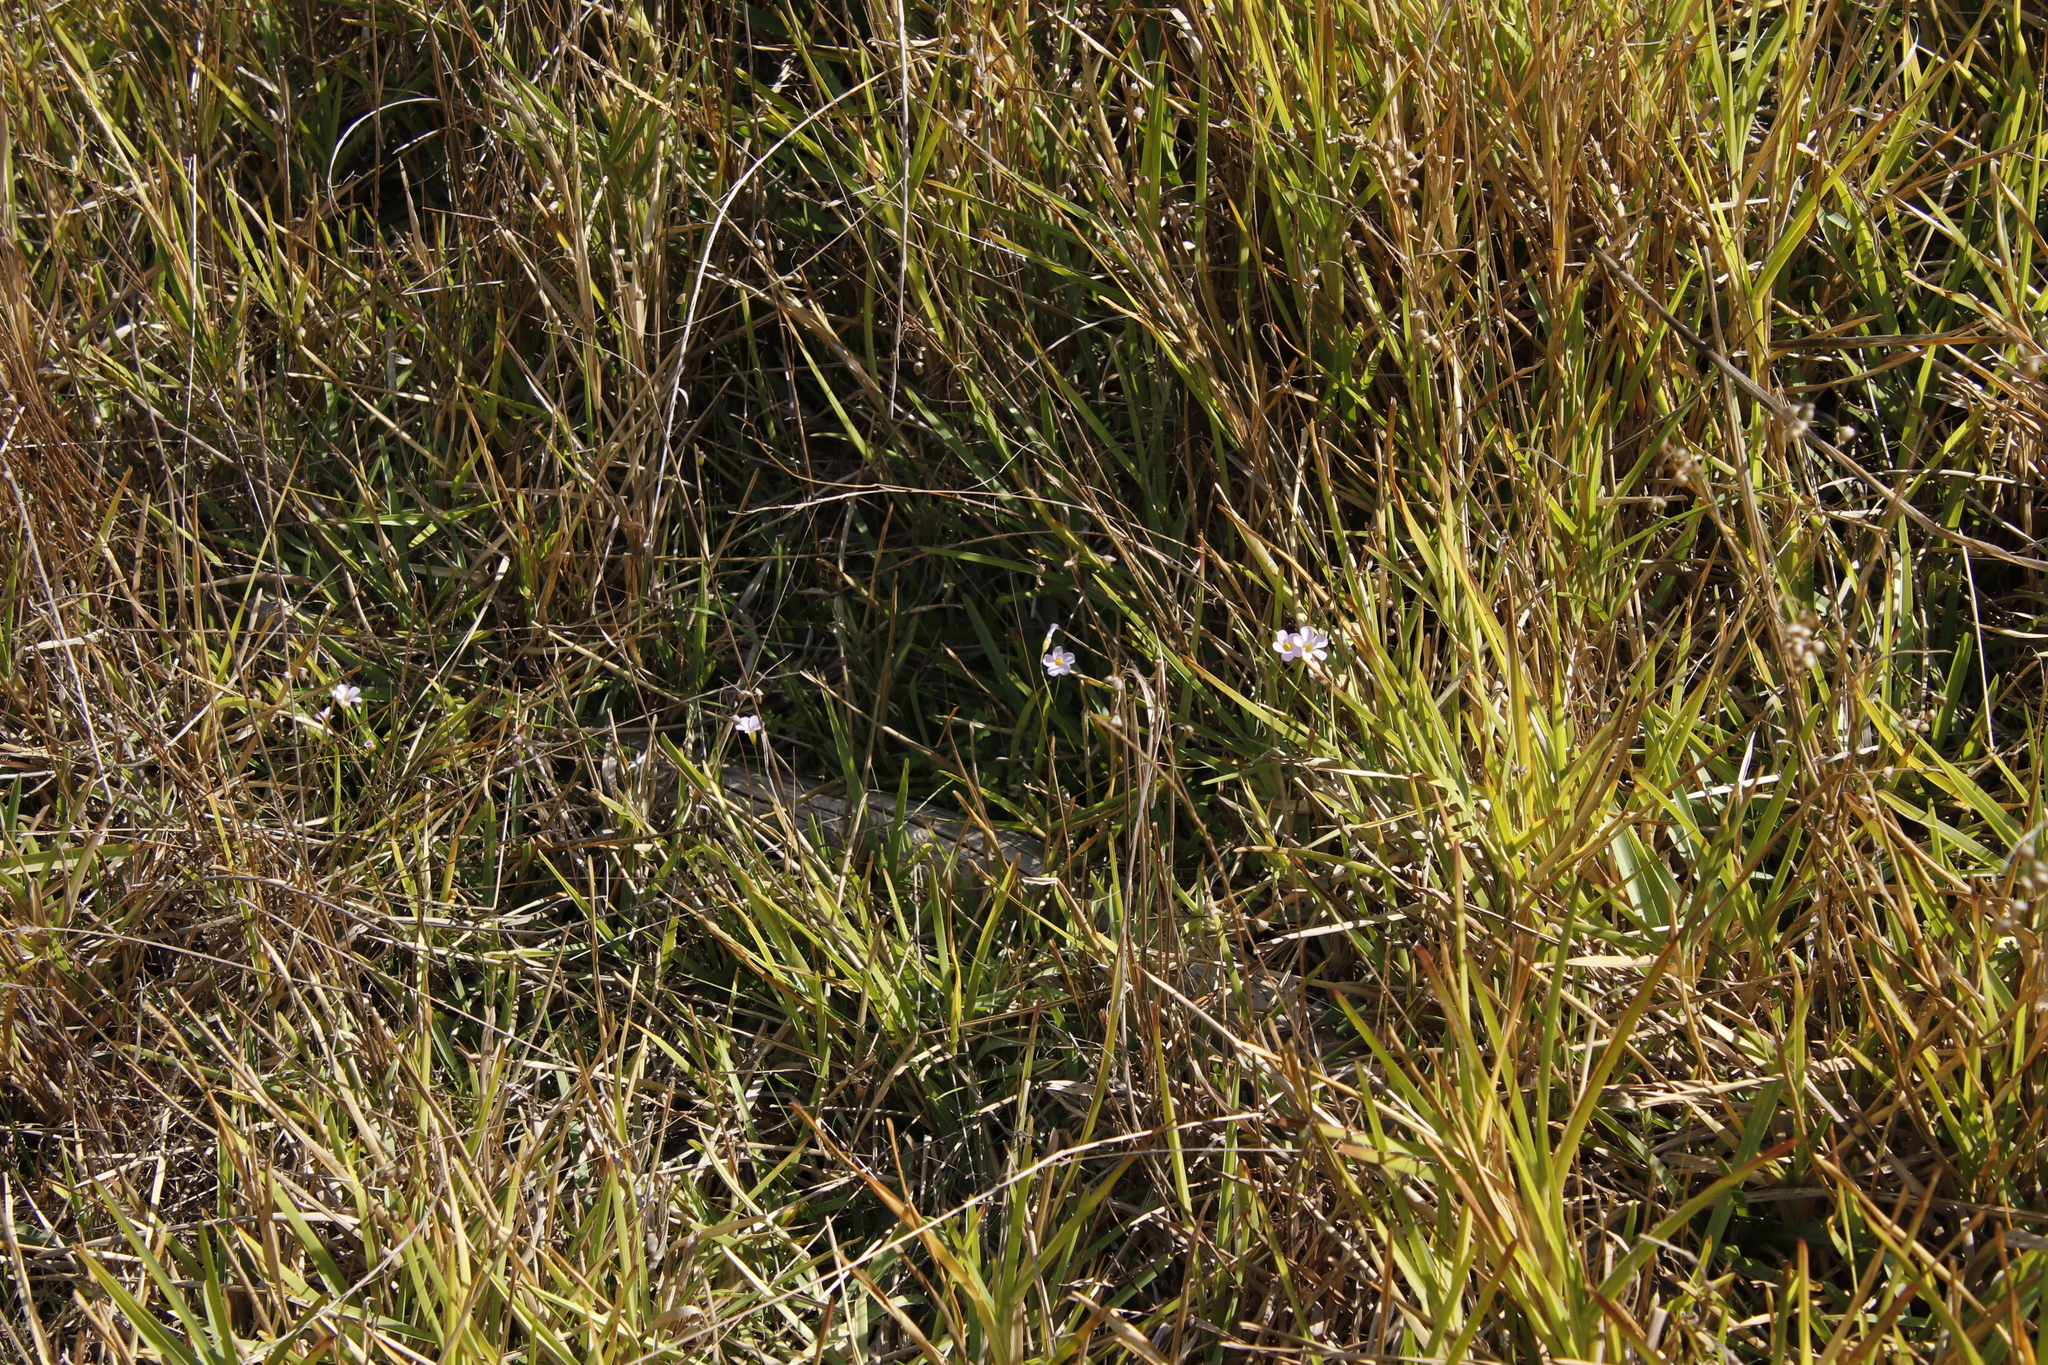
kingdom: Plantae
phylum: Tracheophyta
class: Magnoliopsida
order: Oxalidales
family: Oxalidaceae
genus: Oxalis
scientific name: Oxalis caprina
